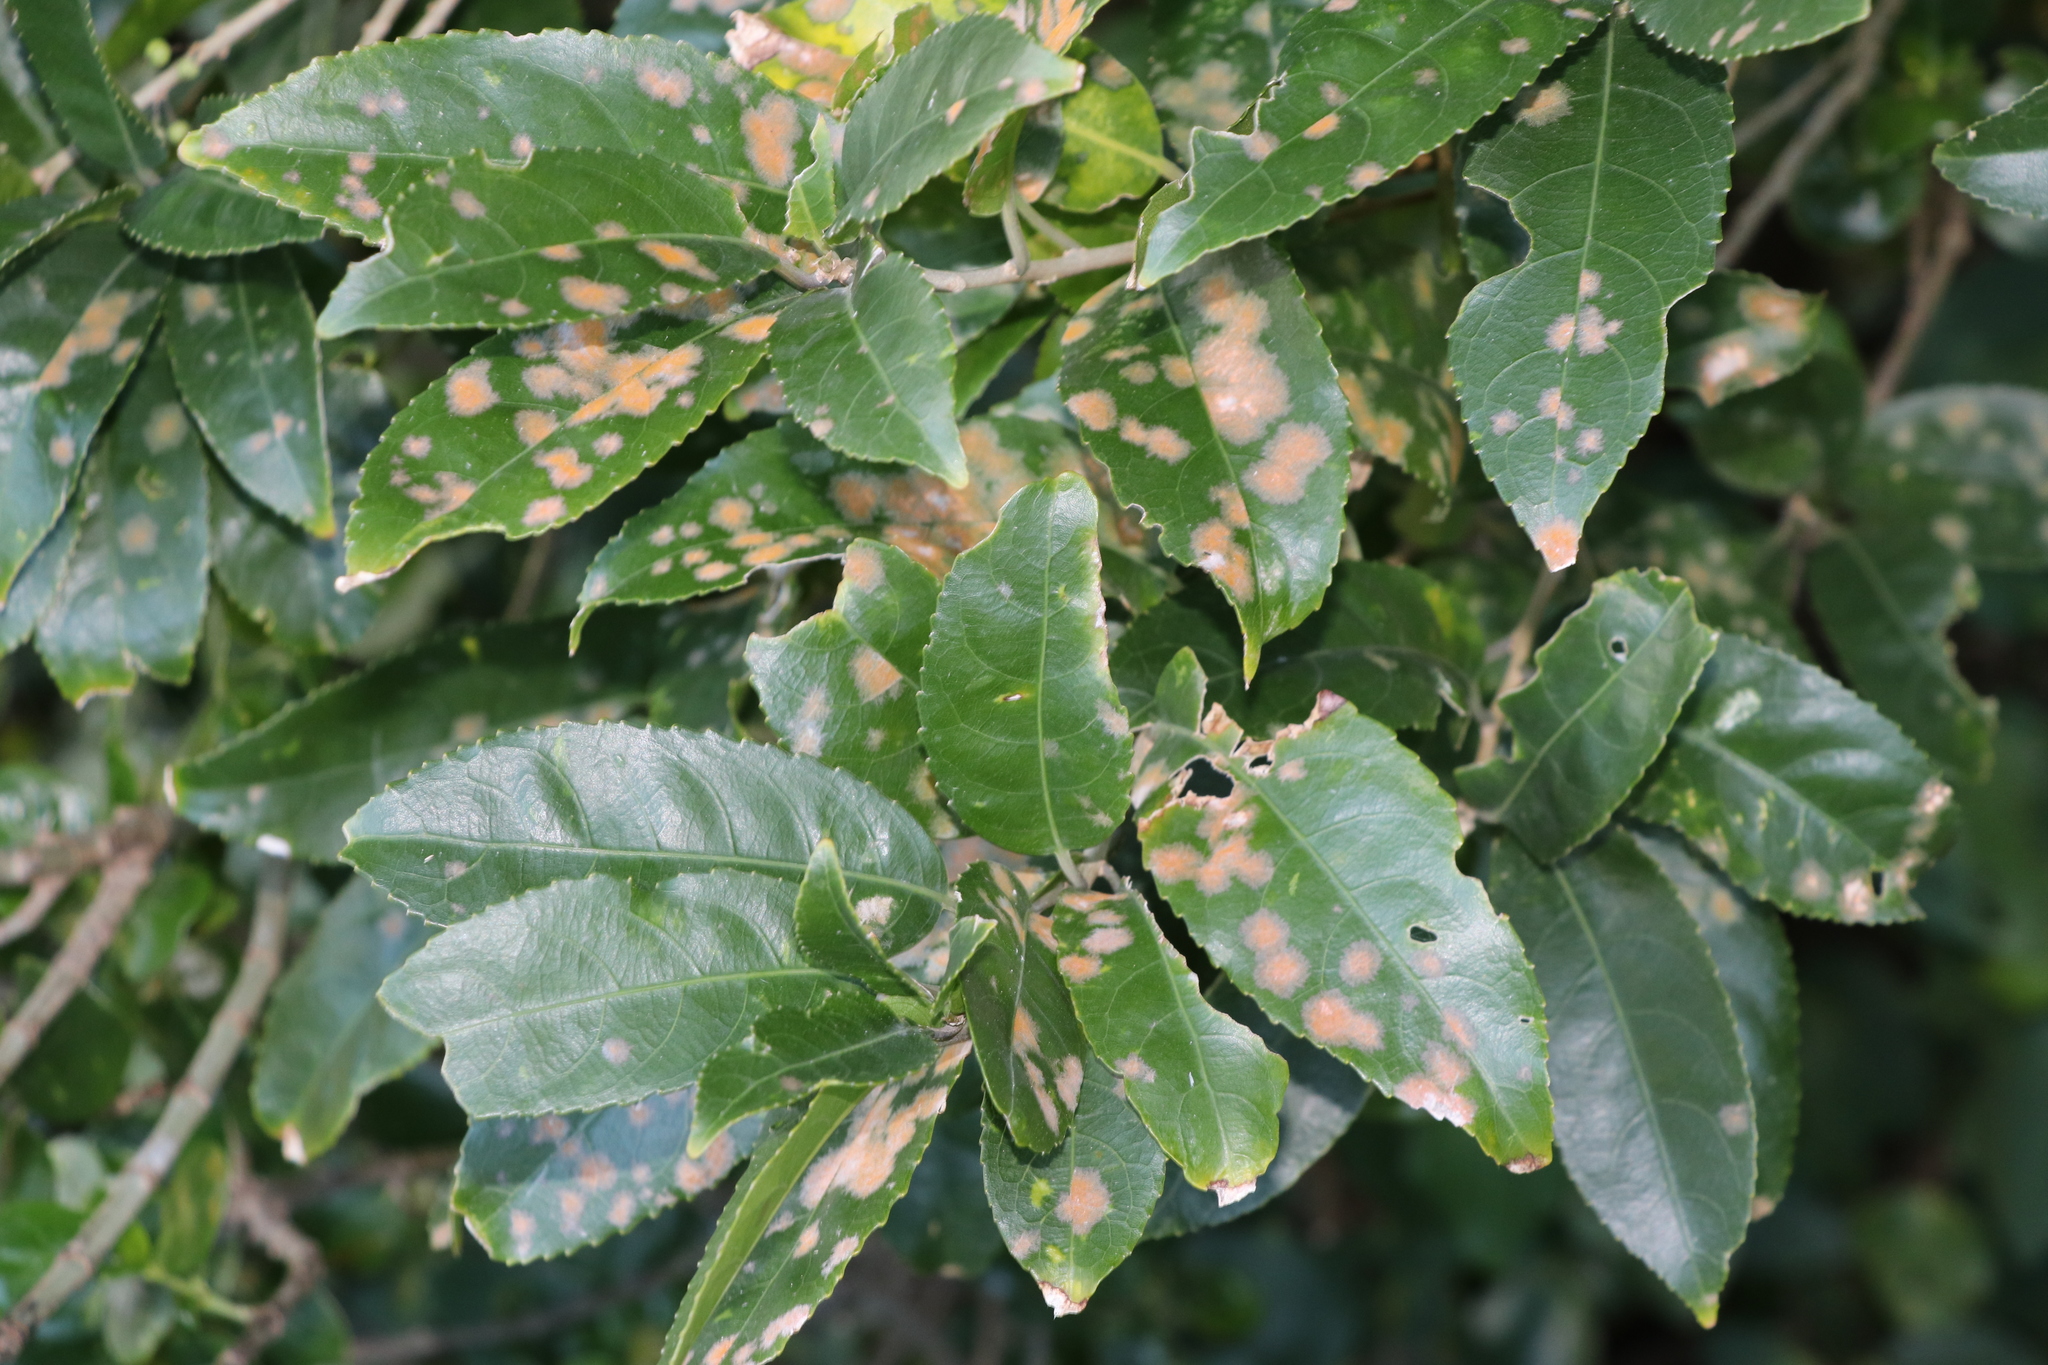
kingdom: Plantae
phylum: Chlorophyta
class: Ulvophyceae
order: Trentepohliales
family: Trentepohliaceae
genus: Cephaleuros
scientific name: Cephaleuros
